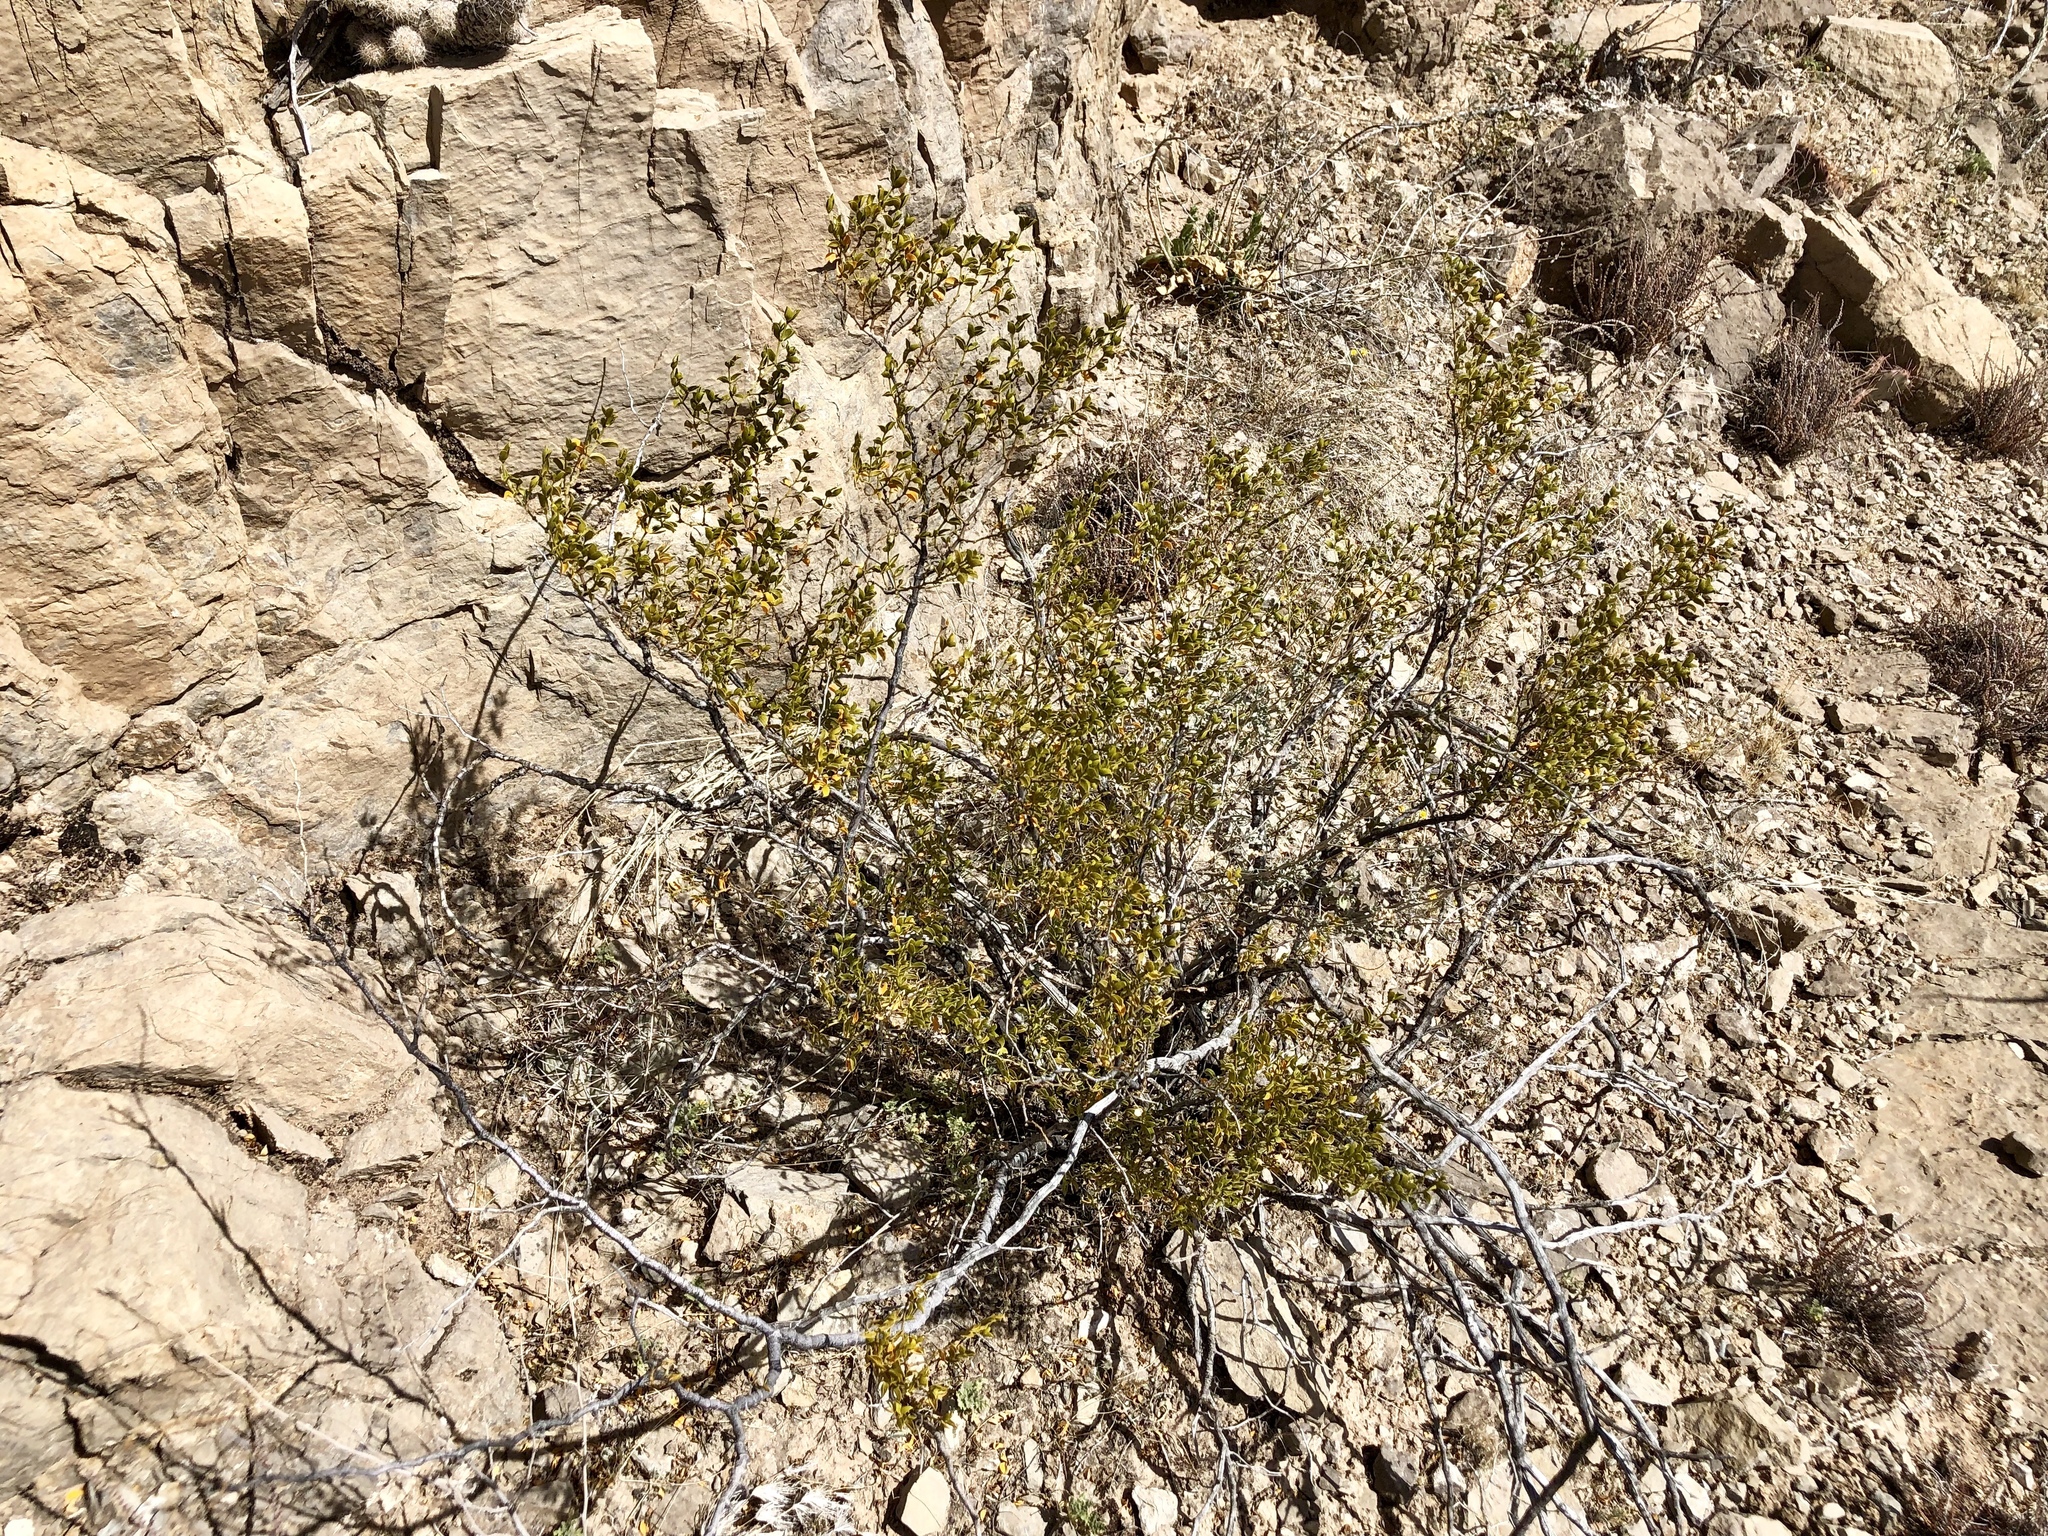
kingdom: Plantae
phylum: Tracheophyta
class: Magnoliopsida
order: Zygophyllales
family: Zygophyllaceae
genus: Larrea
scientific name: Larrea tridentata
